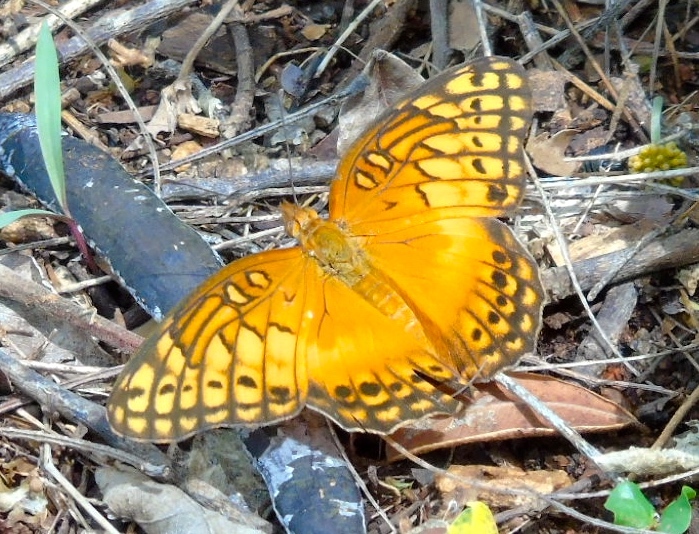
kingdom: Animalia
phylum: Arthropoda
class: Insecta
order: Lepidoptera
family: Nymphalidae
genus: Euptoieta
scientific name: Euptoieta hegesia
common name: Mexican fritillary
